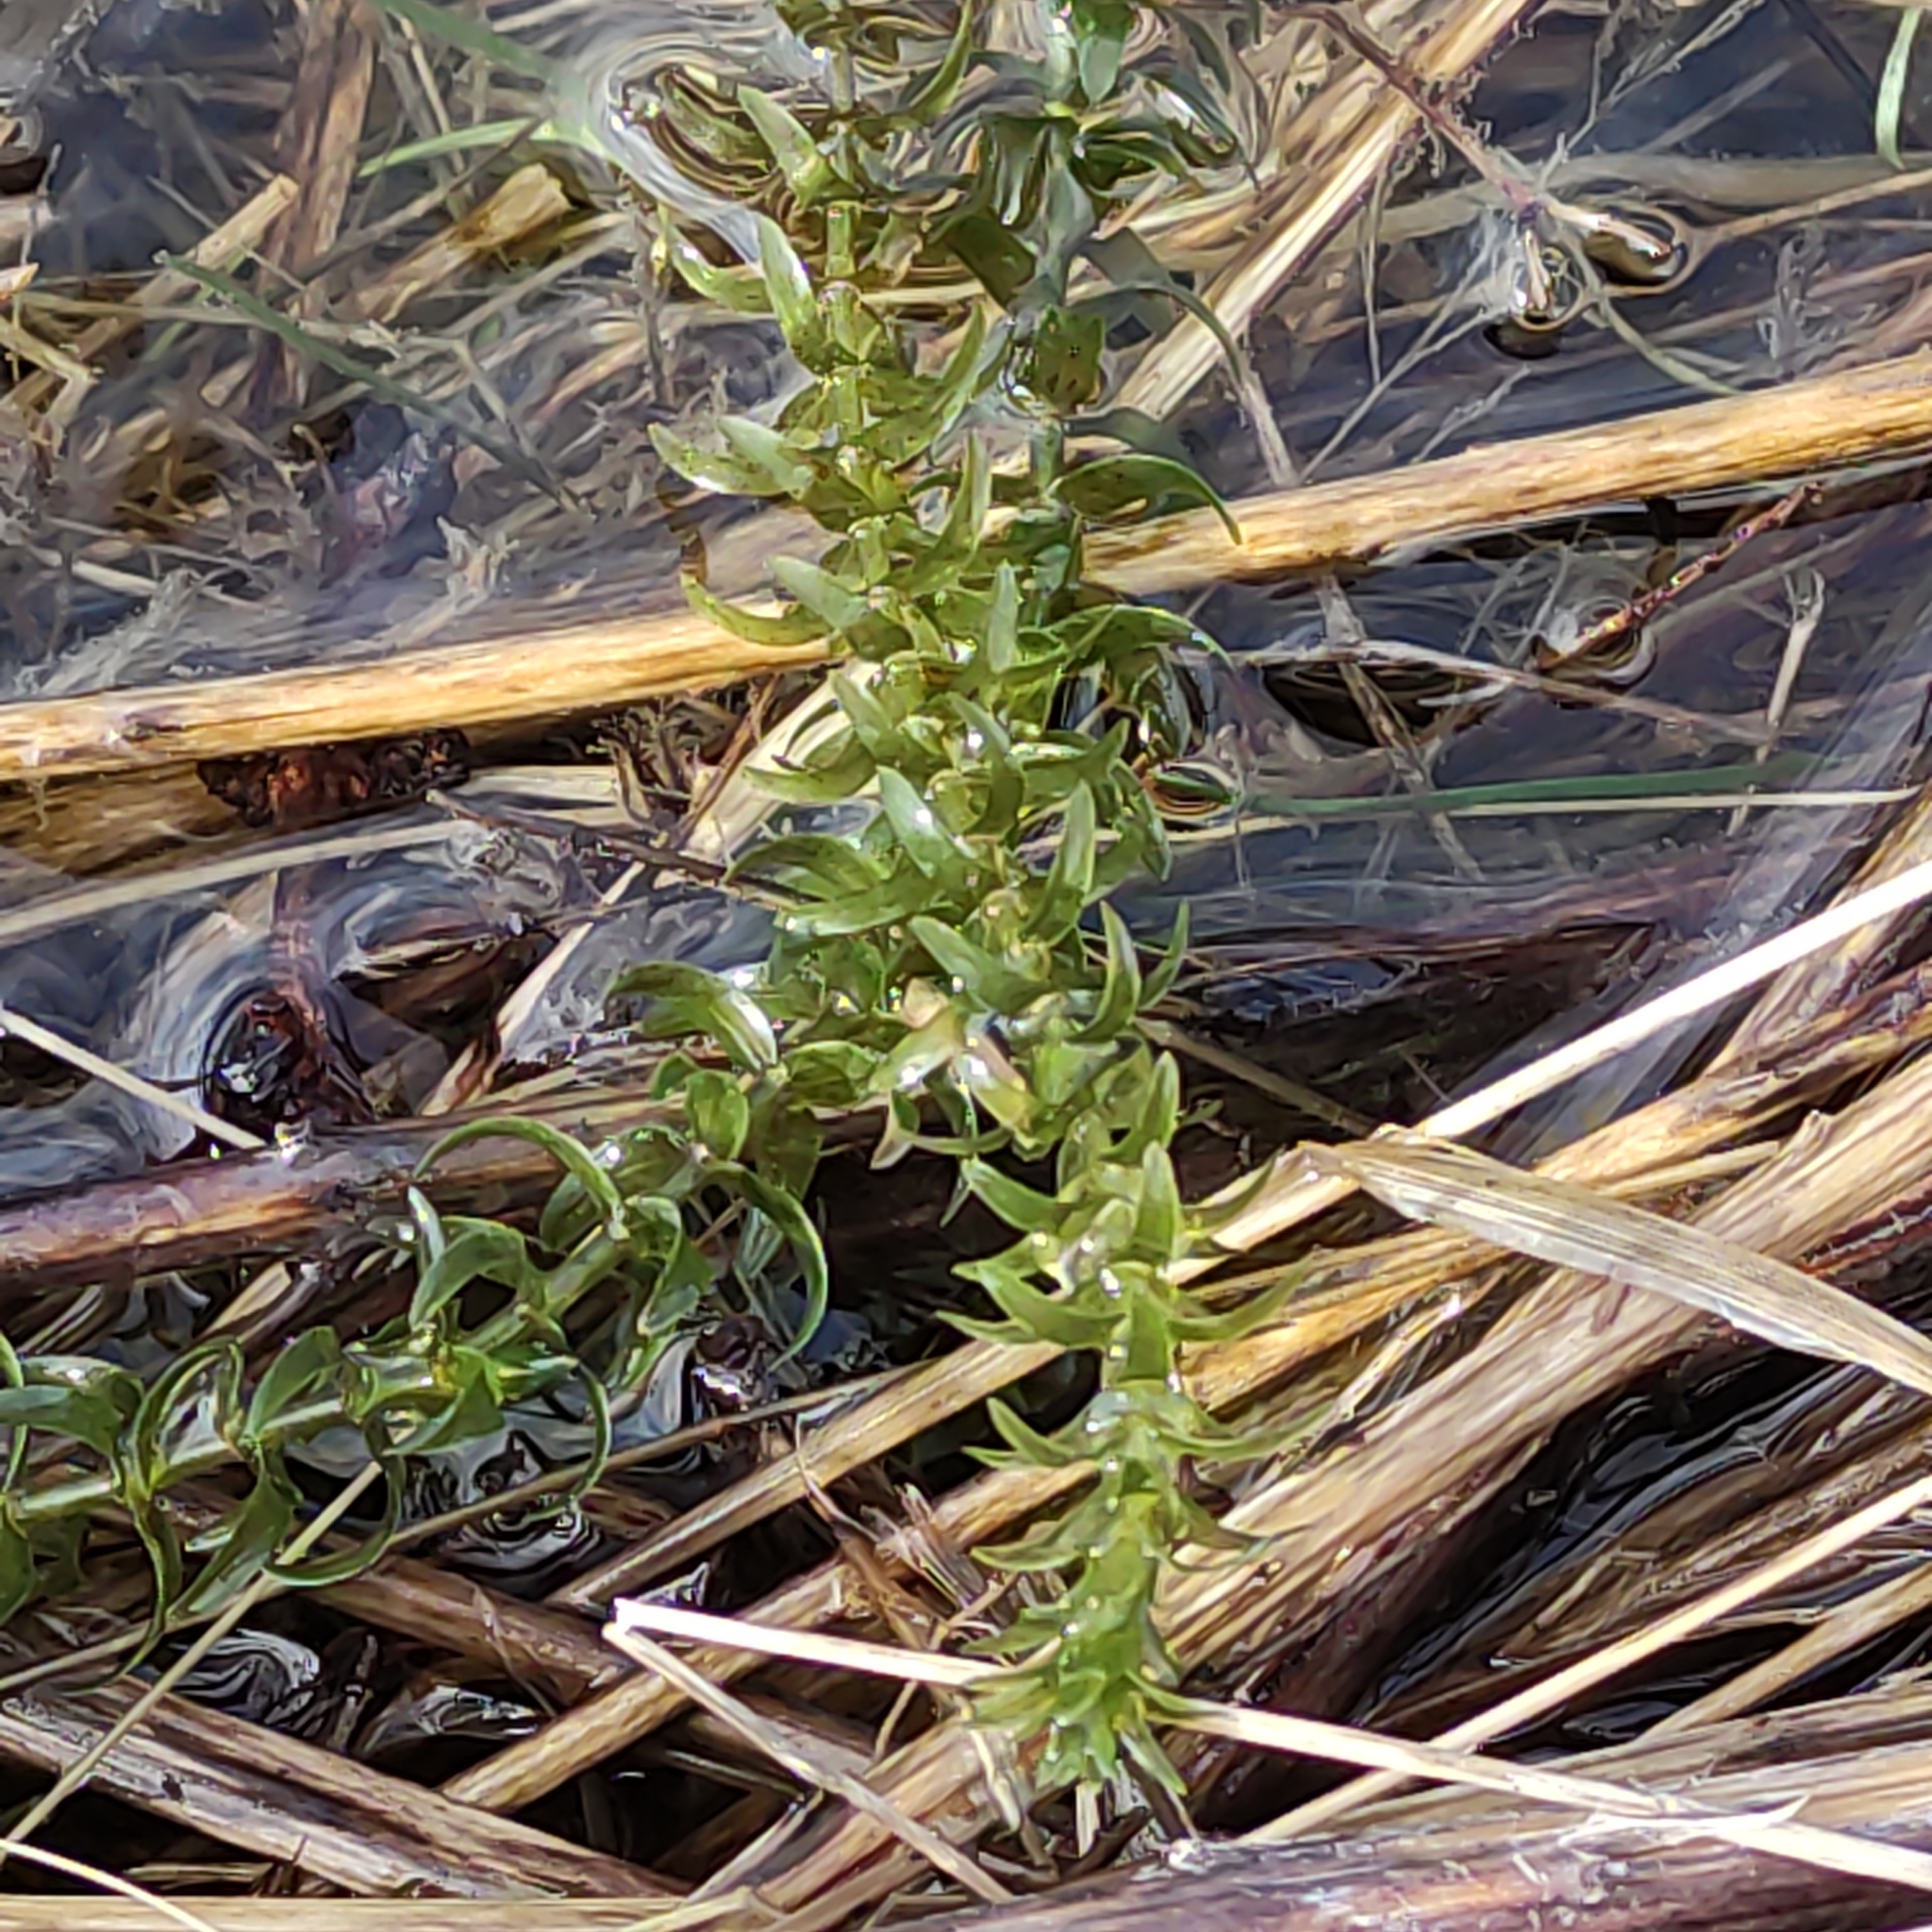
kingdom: Plantae
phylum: Tracheophyta
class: Liliopsida
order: Alismatales
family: Hydrocharitaceae
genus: Elodea
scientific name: Elodea canadensis
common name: Canadian waterweed
